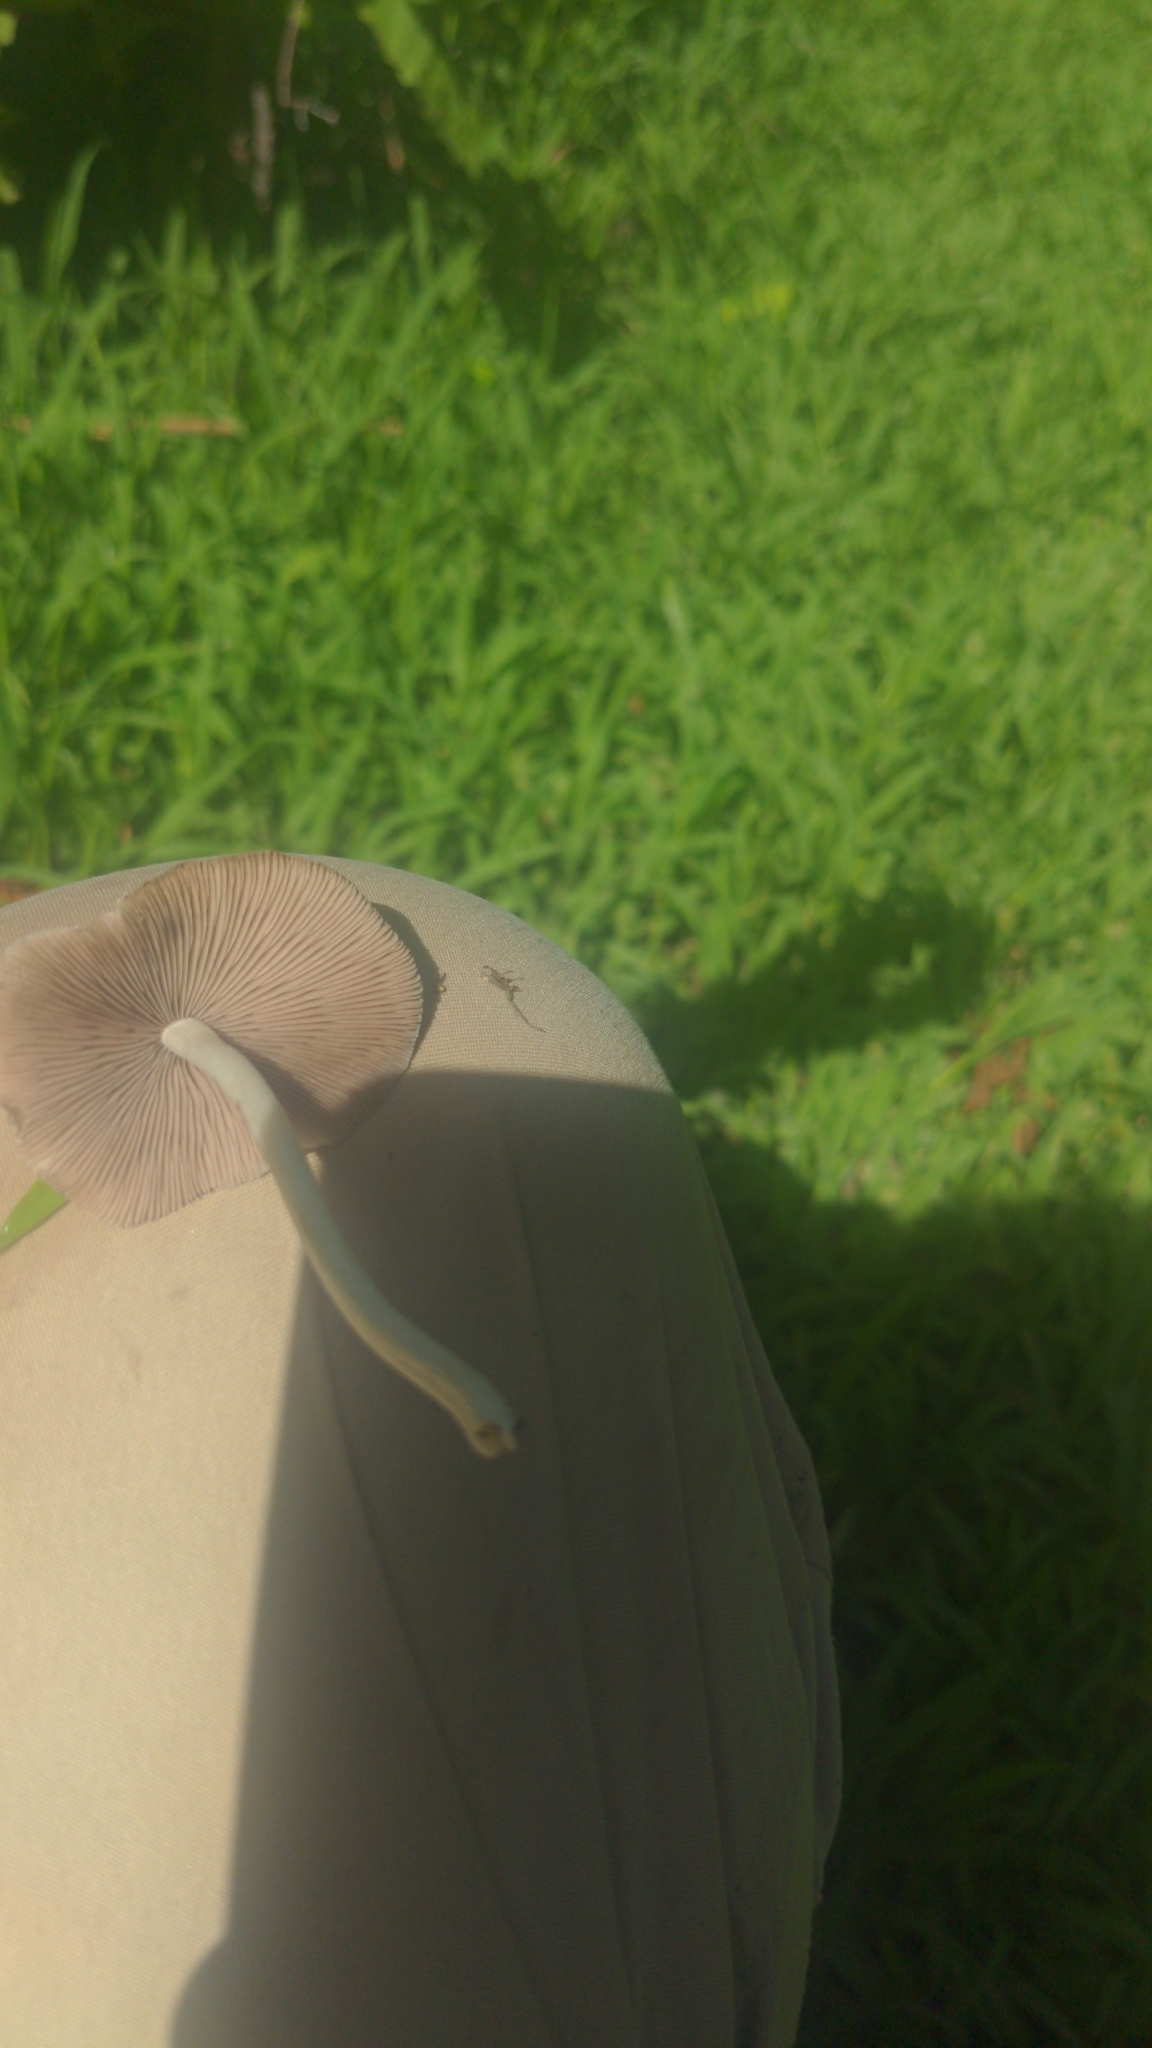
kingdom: Fungi
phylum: Basidiomycota
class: Agaricomycetes
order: Agaricales
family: Psathyrellaceae
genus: Candolleomyces
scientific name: Candolleomyces candolleanus
